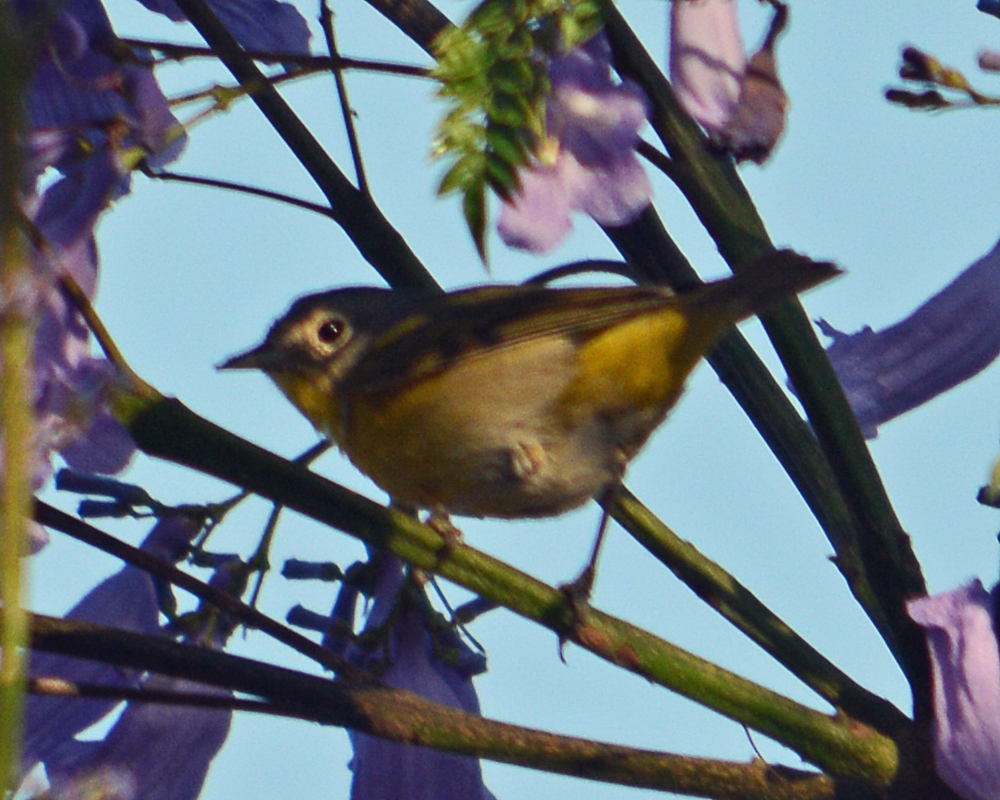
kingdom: Animalia
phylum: Chordata
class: Aves
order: Passeriformes
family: Parulidae
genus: Leiothlypis
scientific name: Leiothlypis ruficapilla
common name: Nashville warbler
